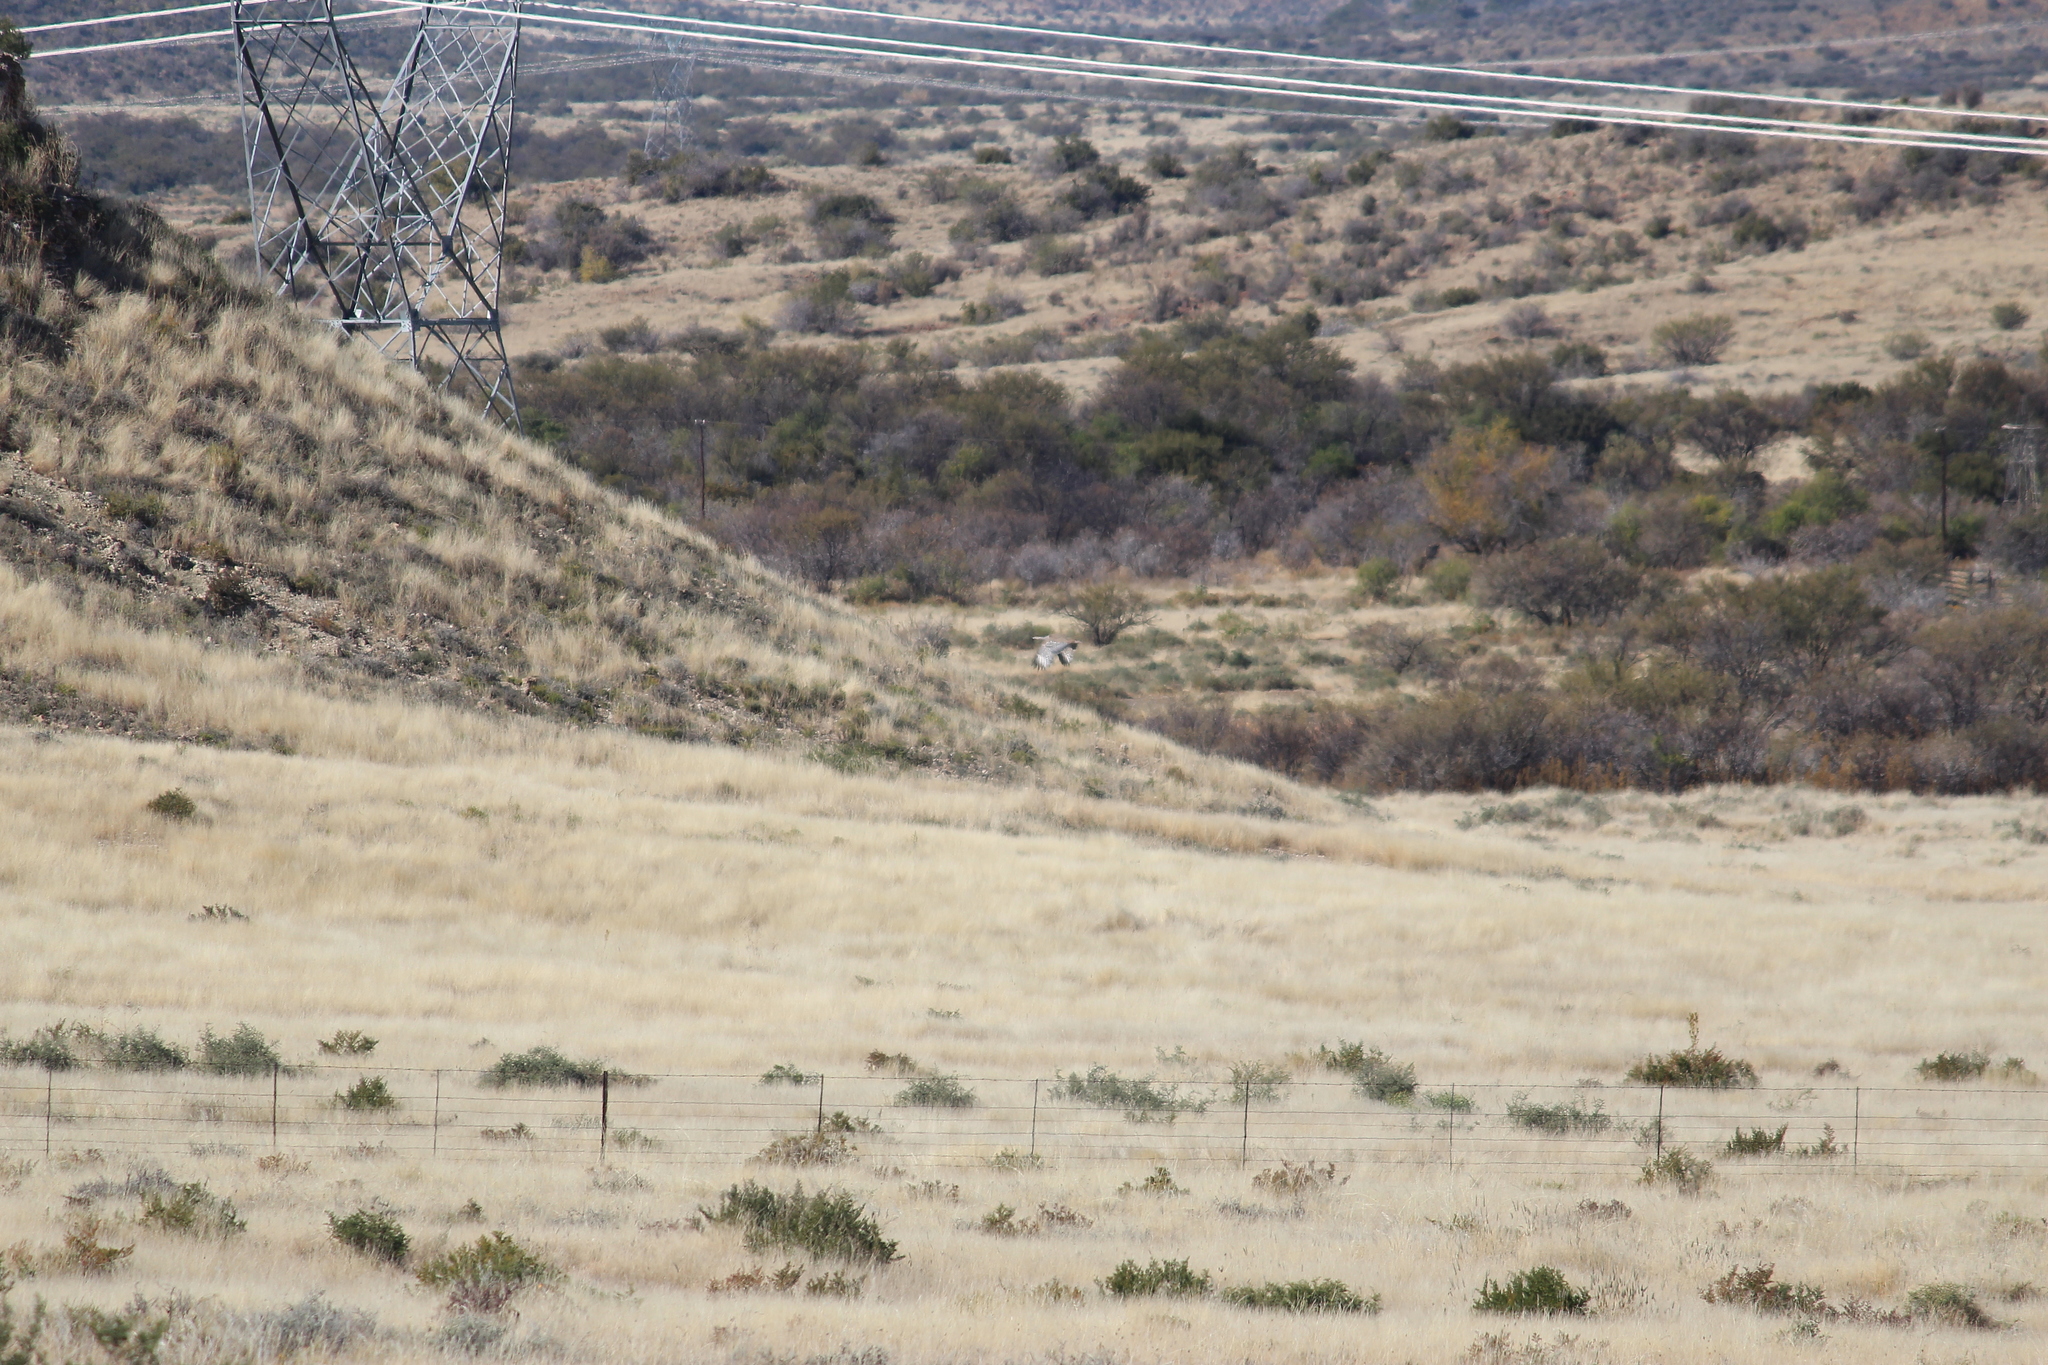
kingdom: Animalia
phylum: Chordata
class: Aves
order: Otidiformes
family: Otididae
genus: Ardeotis
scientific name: Ardeotis kori
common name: Kori bustard
